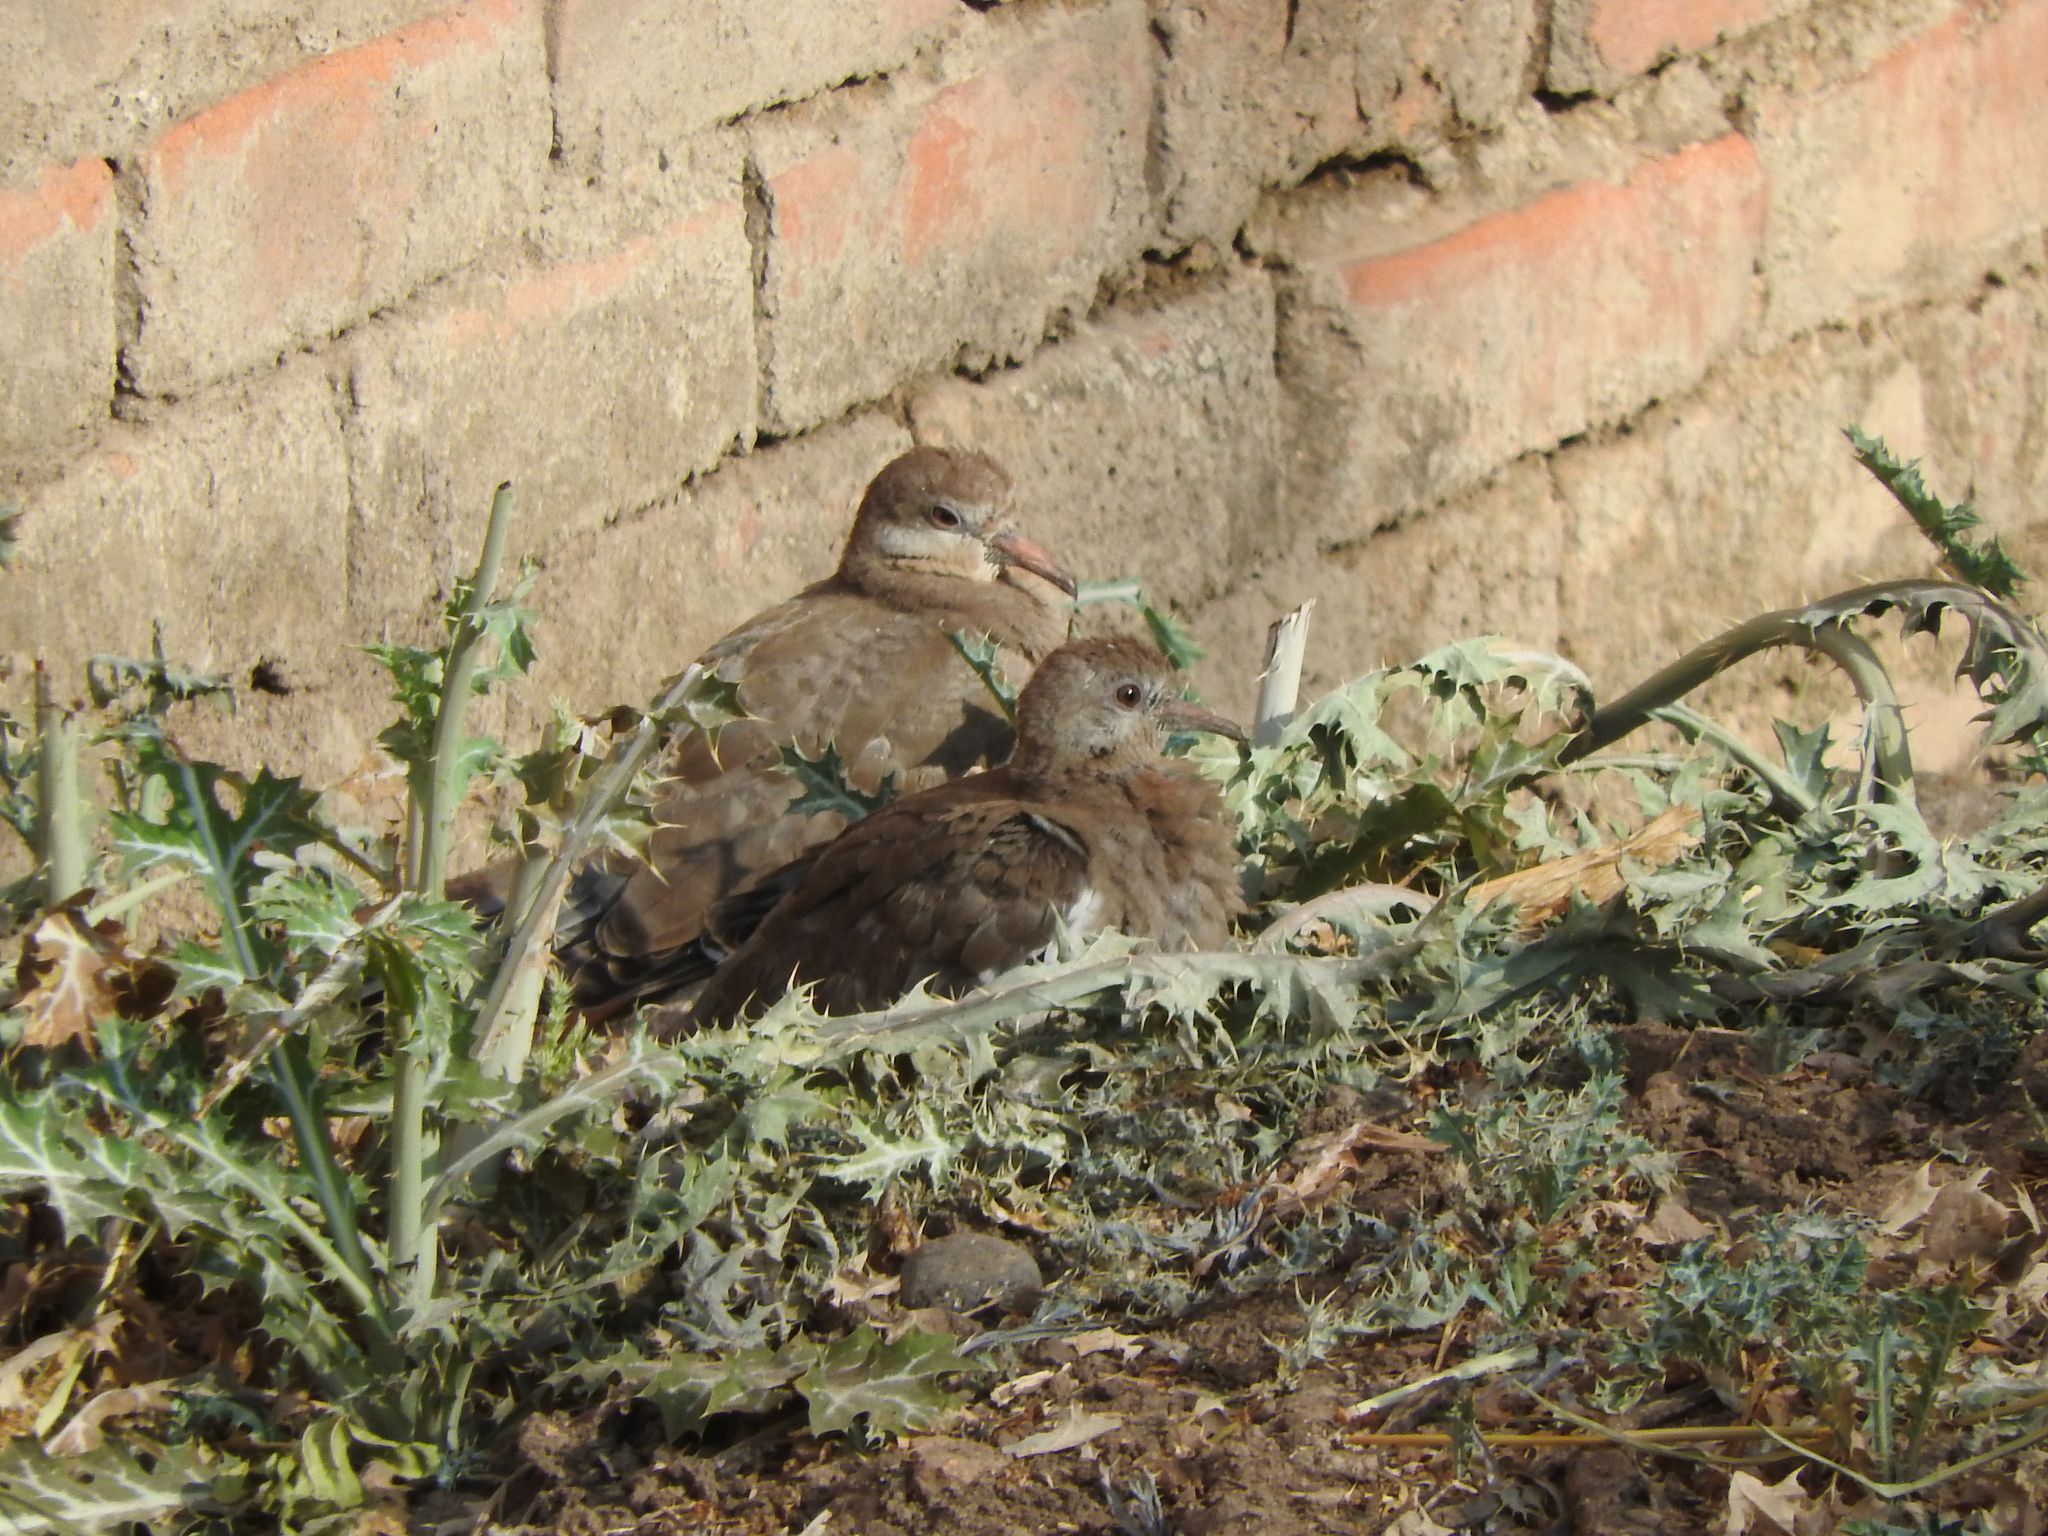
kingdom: Animalia
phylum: Chordata
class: Aves
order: Columbiformes
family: Columbidae
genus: Zenaida
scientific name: Zenaida asiatica
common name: White-winged dove
